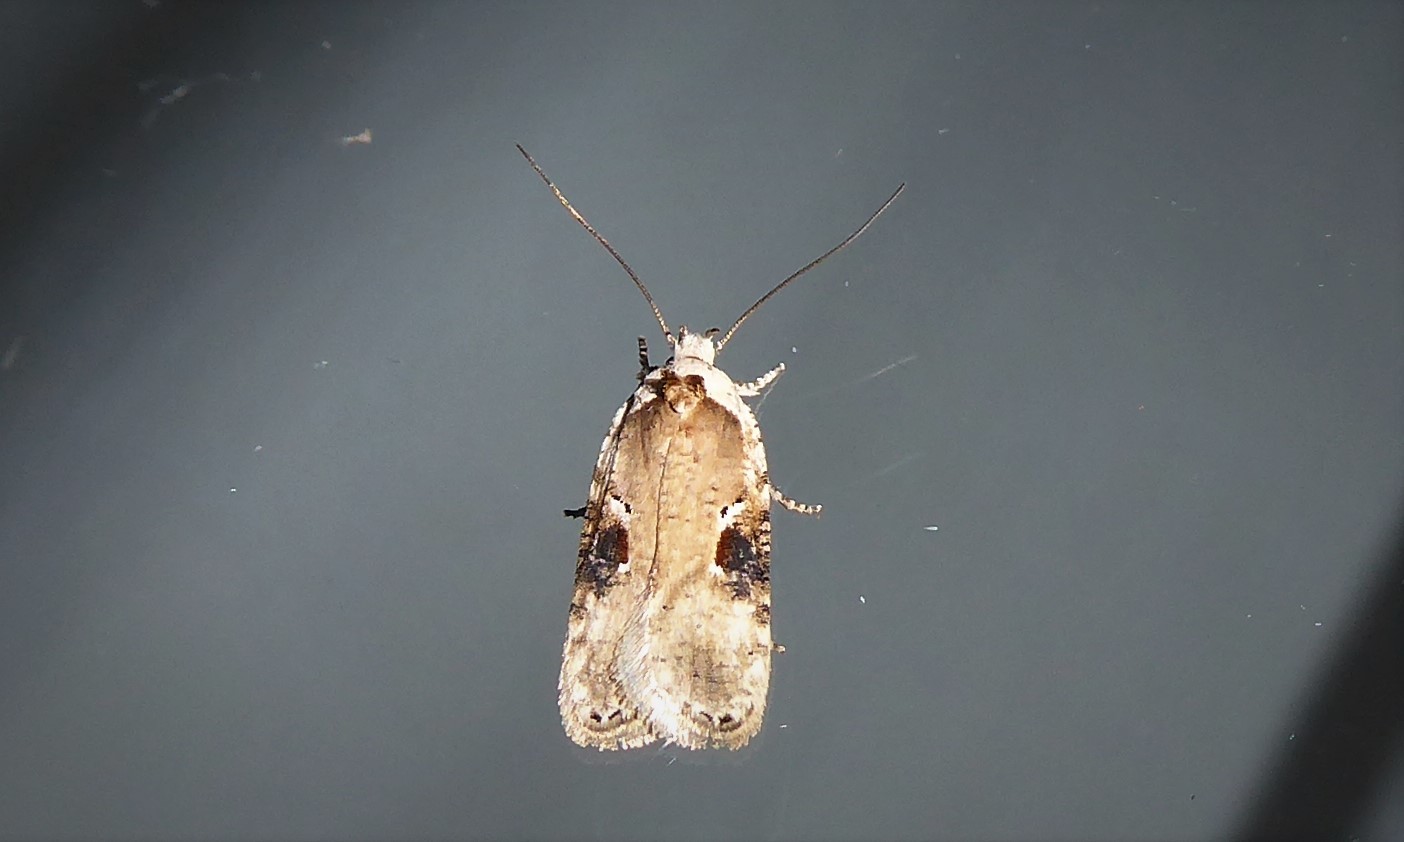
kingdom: Animalia
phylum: Arthropoda
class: Insecta
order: Lepidoptera
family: Depressariidae
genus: Agonopterix
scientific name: Agonopterix alstroemeriana
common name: Moth
